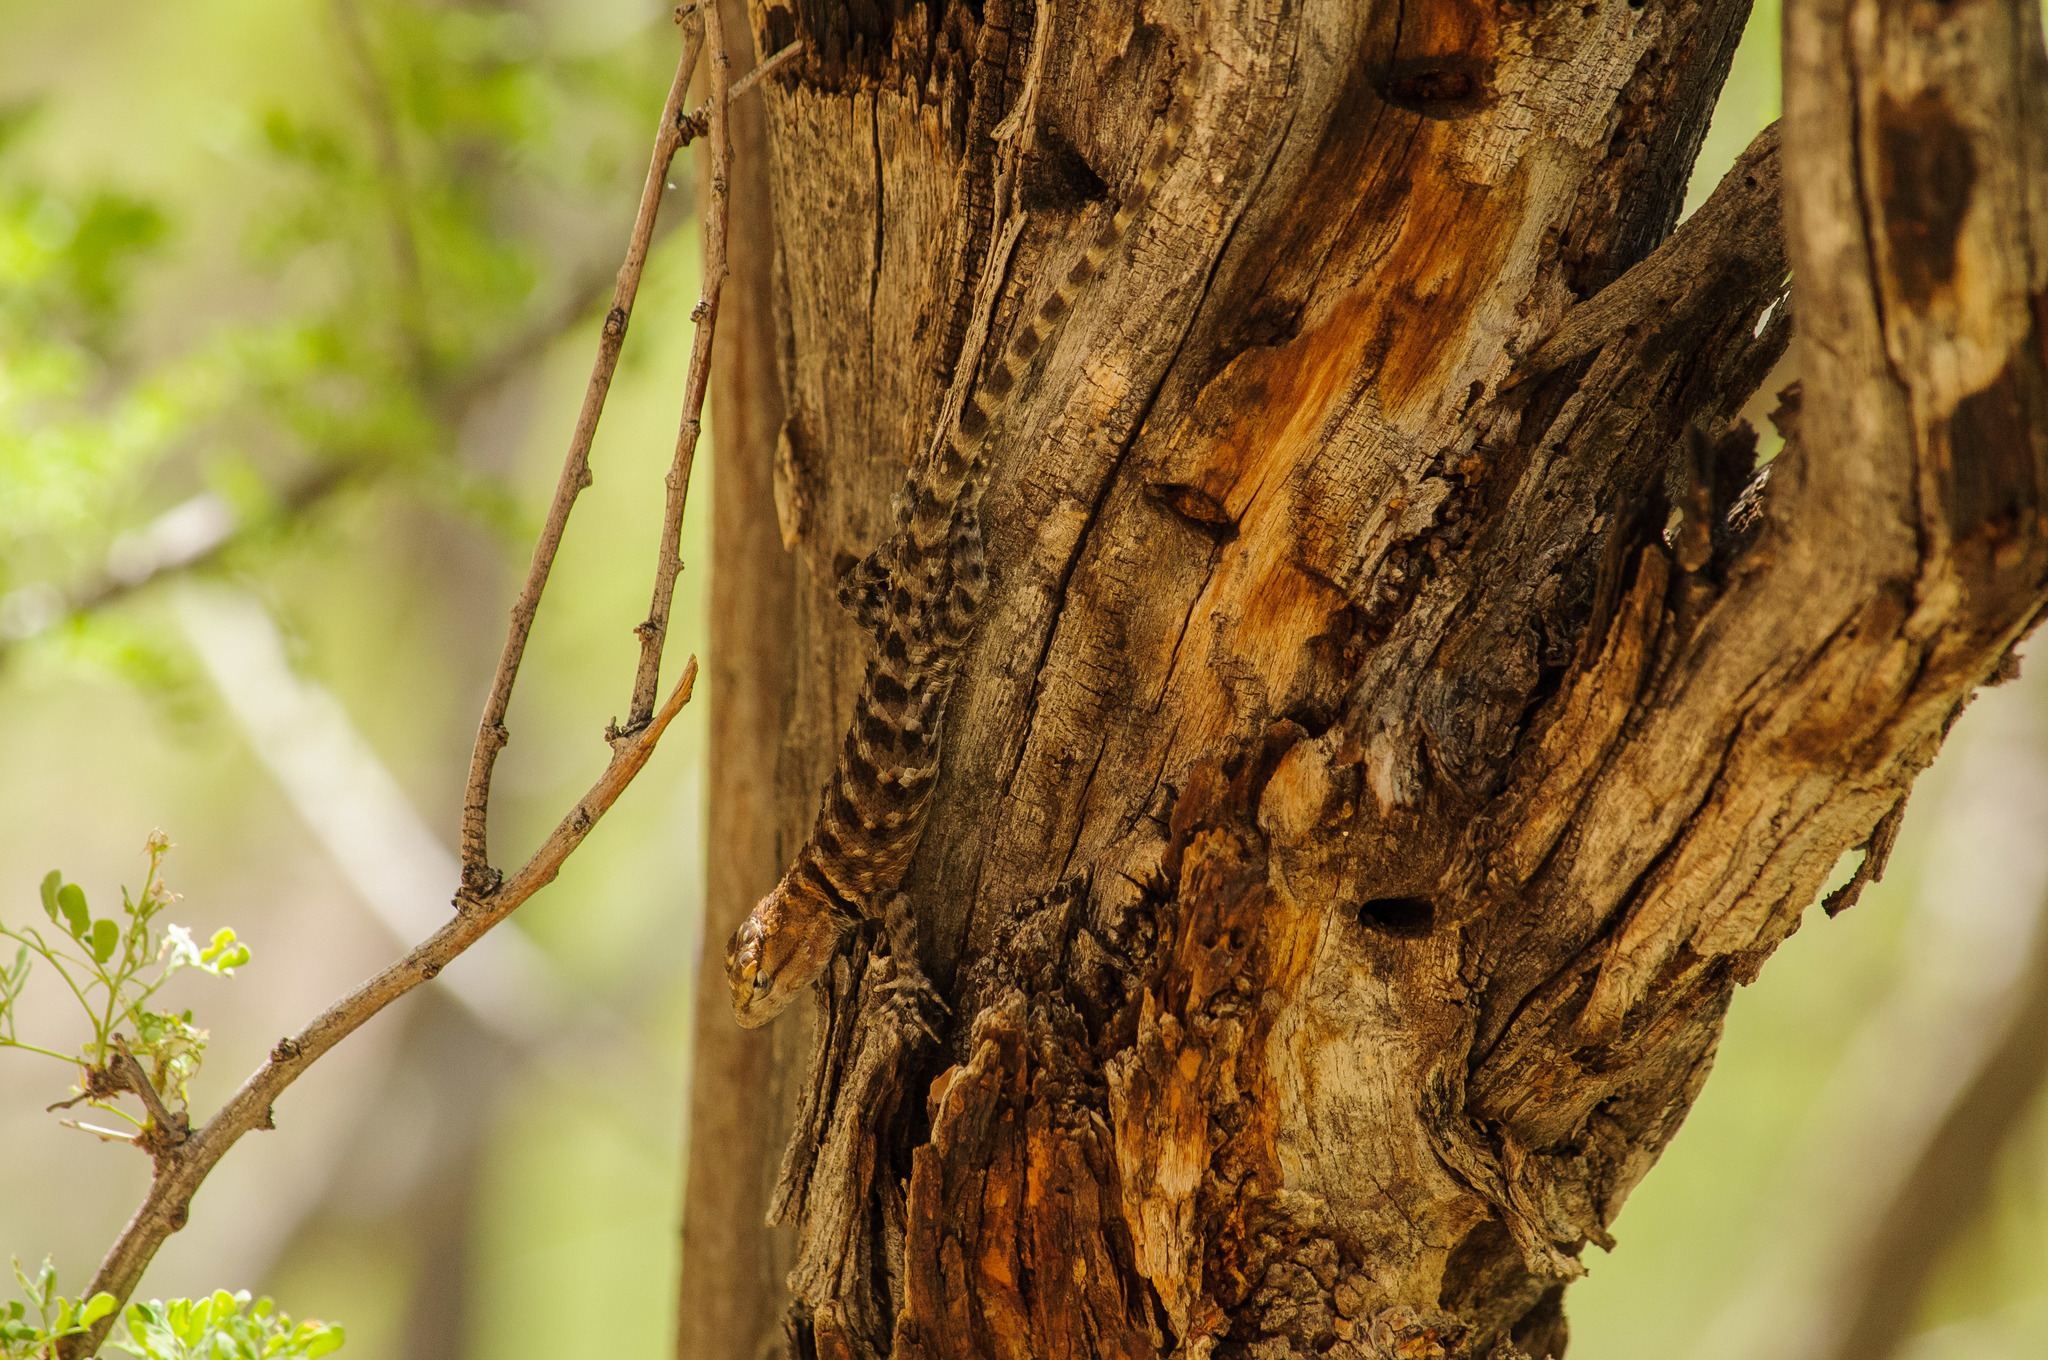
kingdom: Animalia
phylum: Chordata
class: Squamata
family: Phrynosomatidae
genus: Sceloporus
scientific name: Sceloporus magister
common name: Desert spiny lizard
